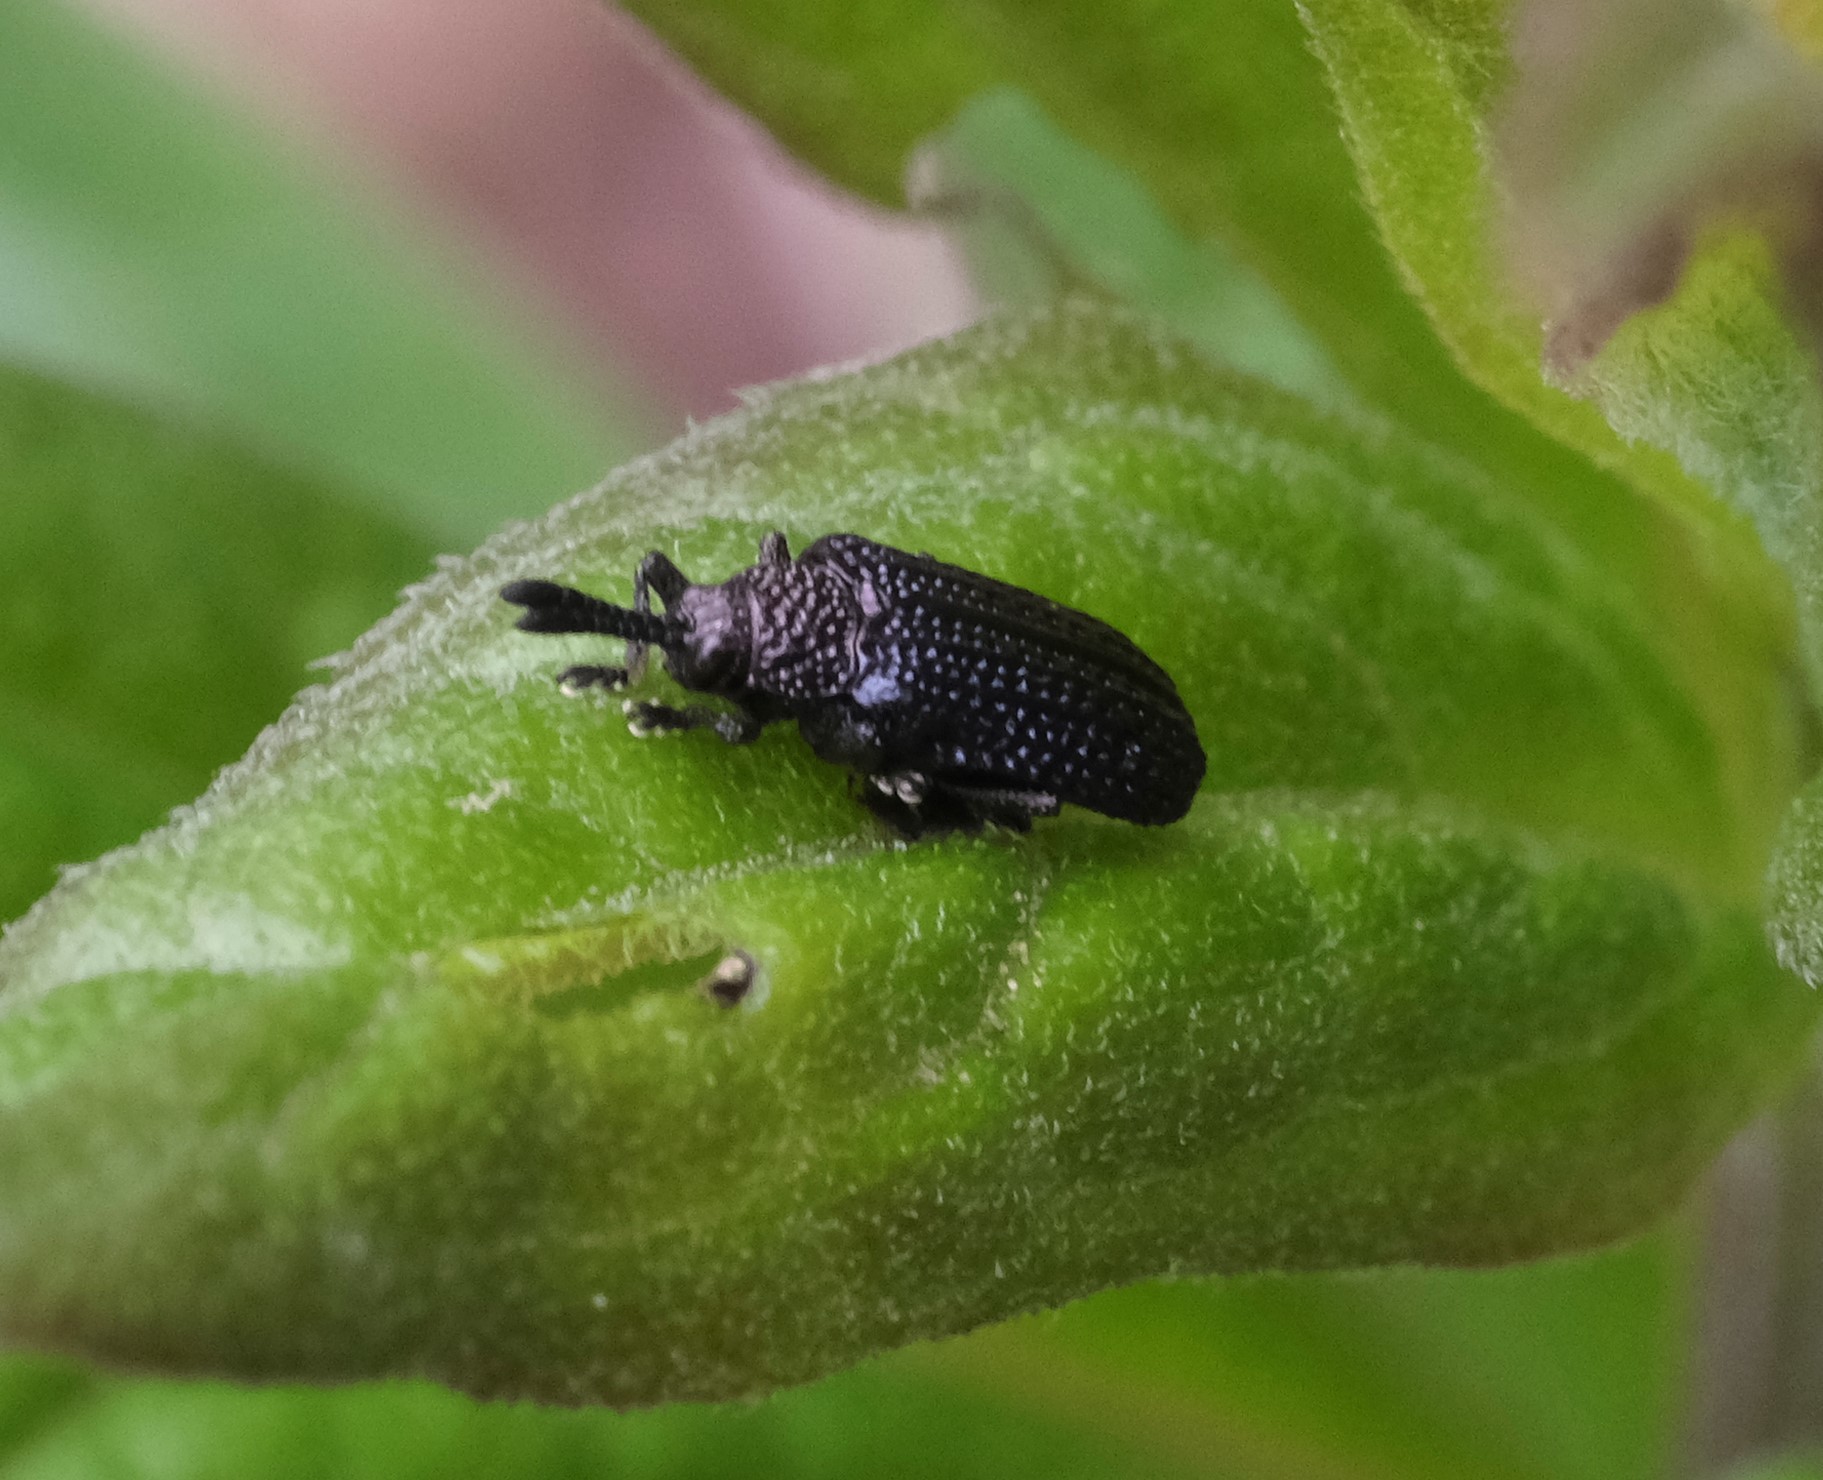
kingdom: Animalia
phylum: Arthropoda
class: Insecta
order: Coleoptera
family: Chrysomelidae
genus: Microrhopala
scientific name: Microrhopala excavata
